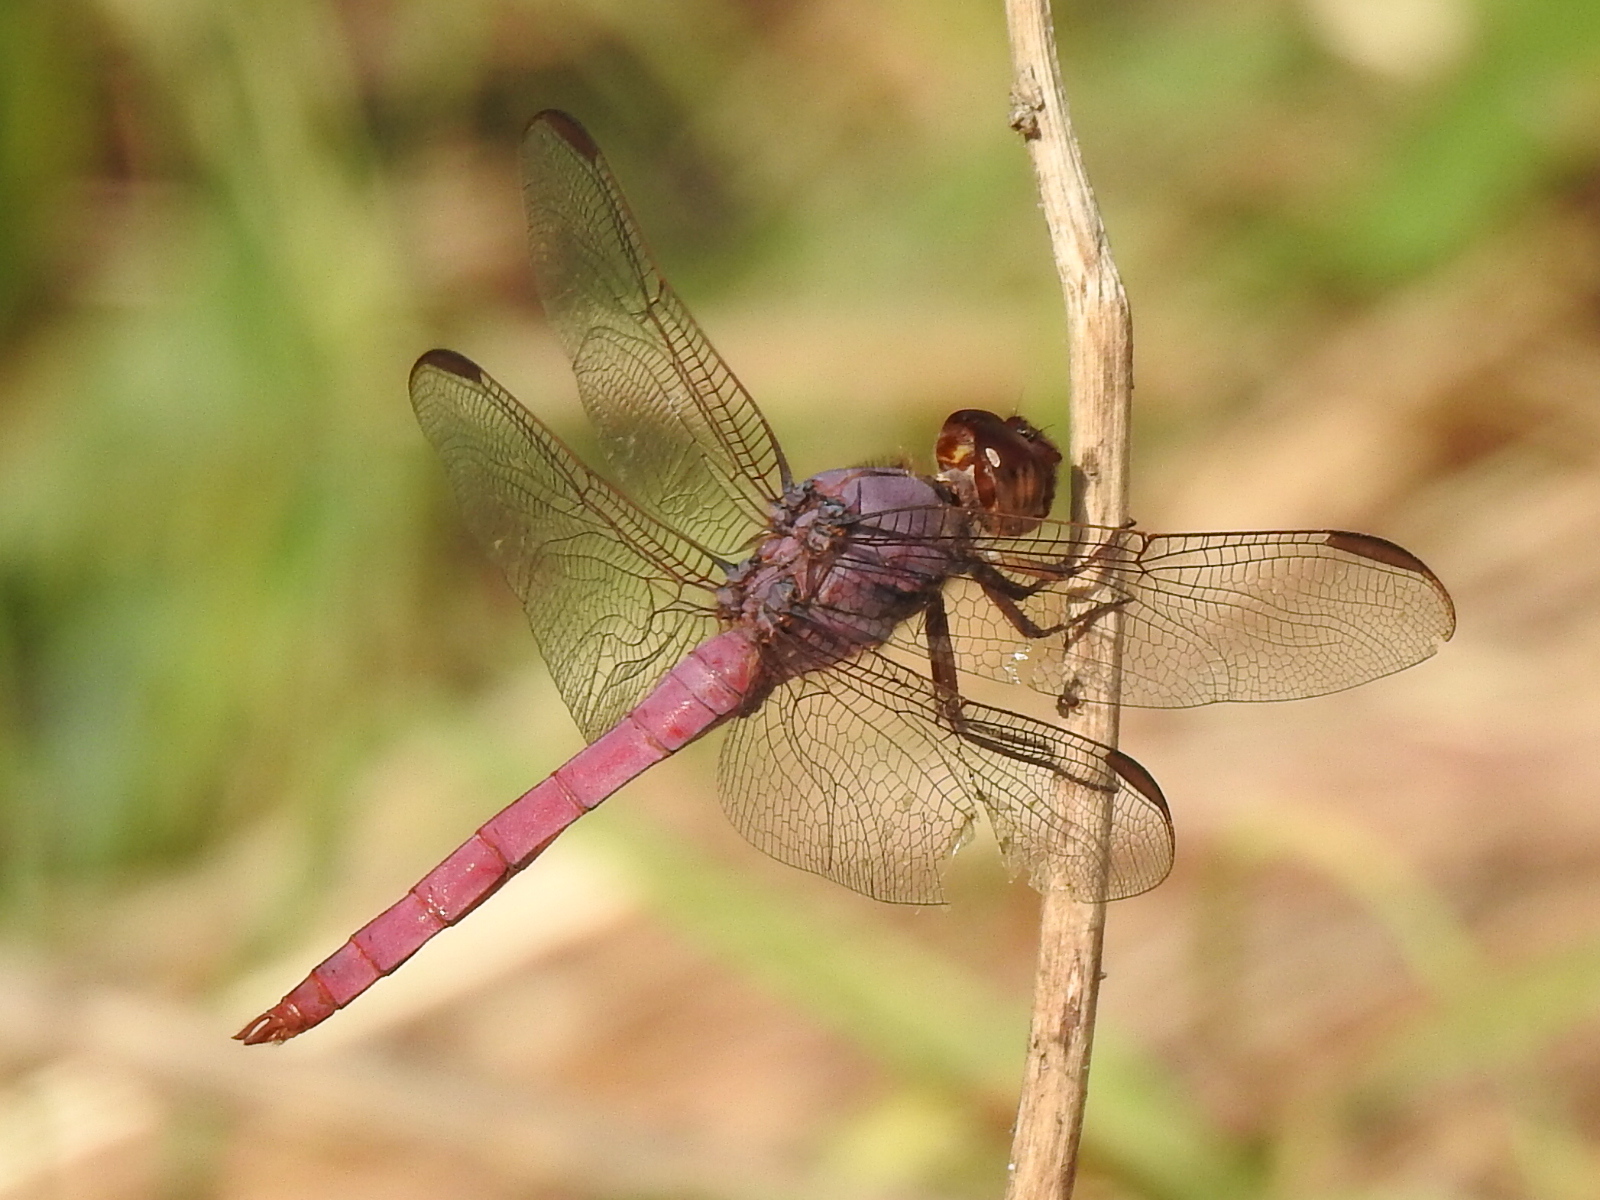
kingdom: Animalia
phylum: Arthropoda
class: Insecta
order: Odonata
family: Libellulidae
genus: Orthemis
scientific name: Orthemis ferruginea
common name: Roseate skimmer
